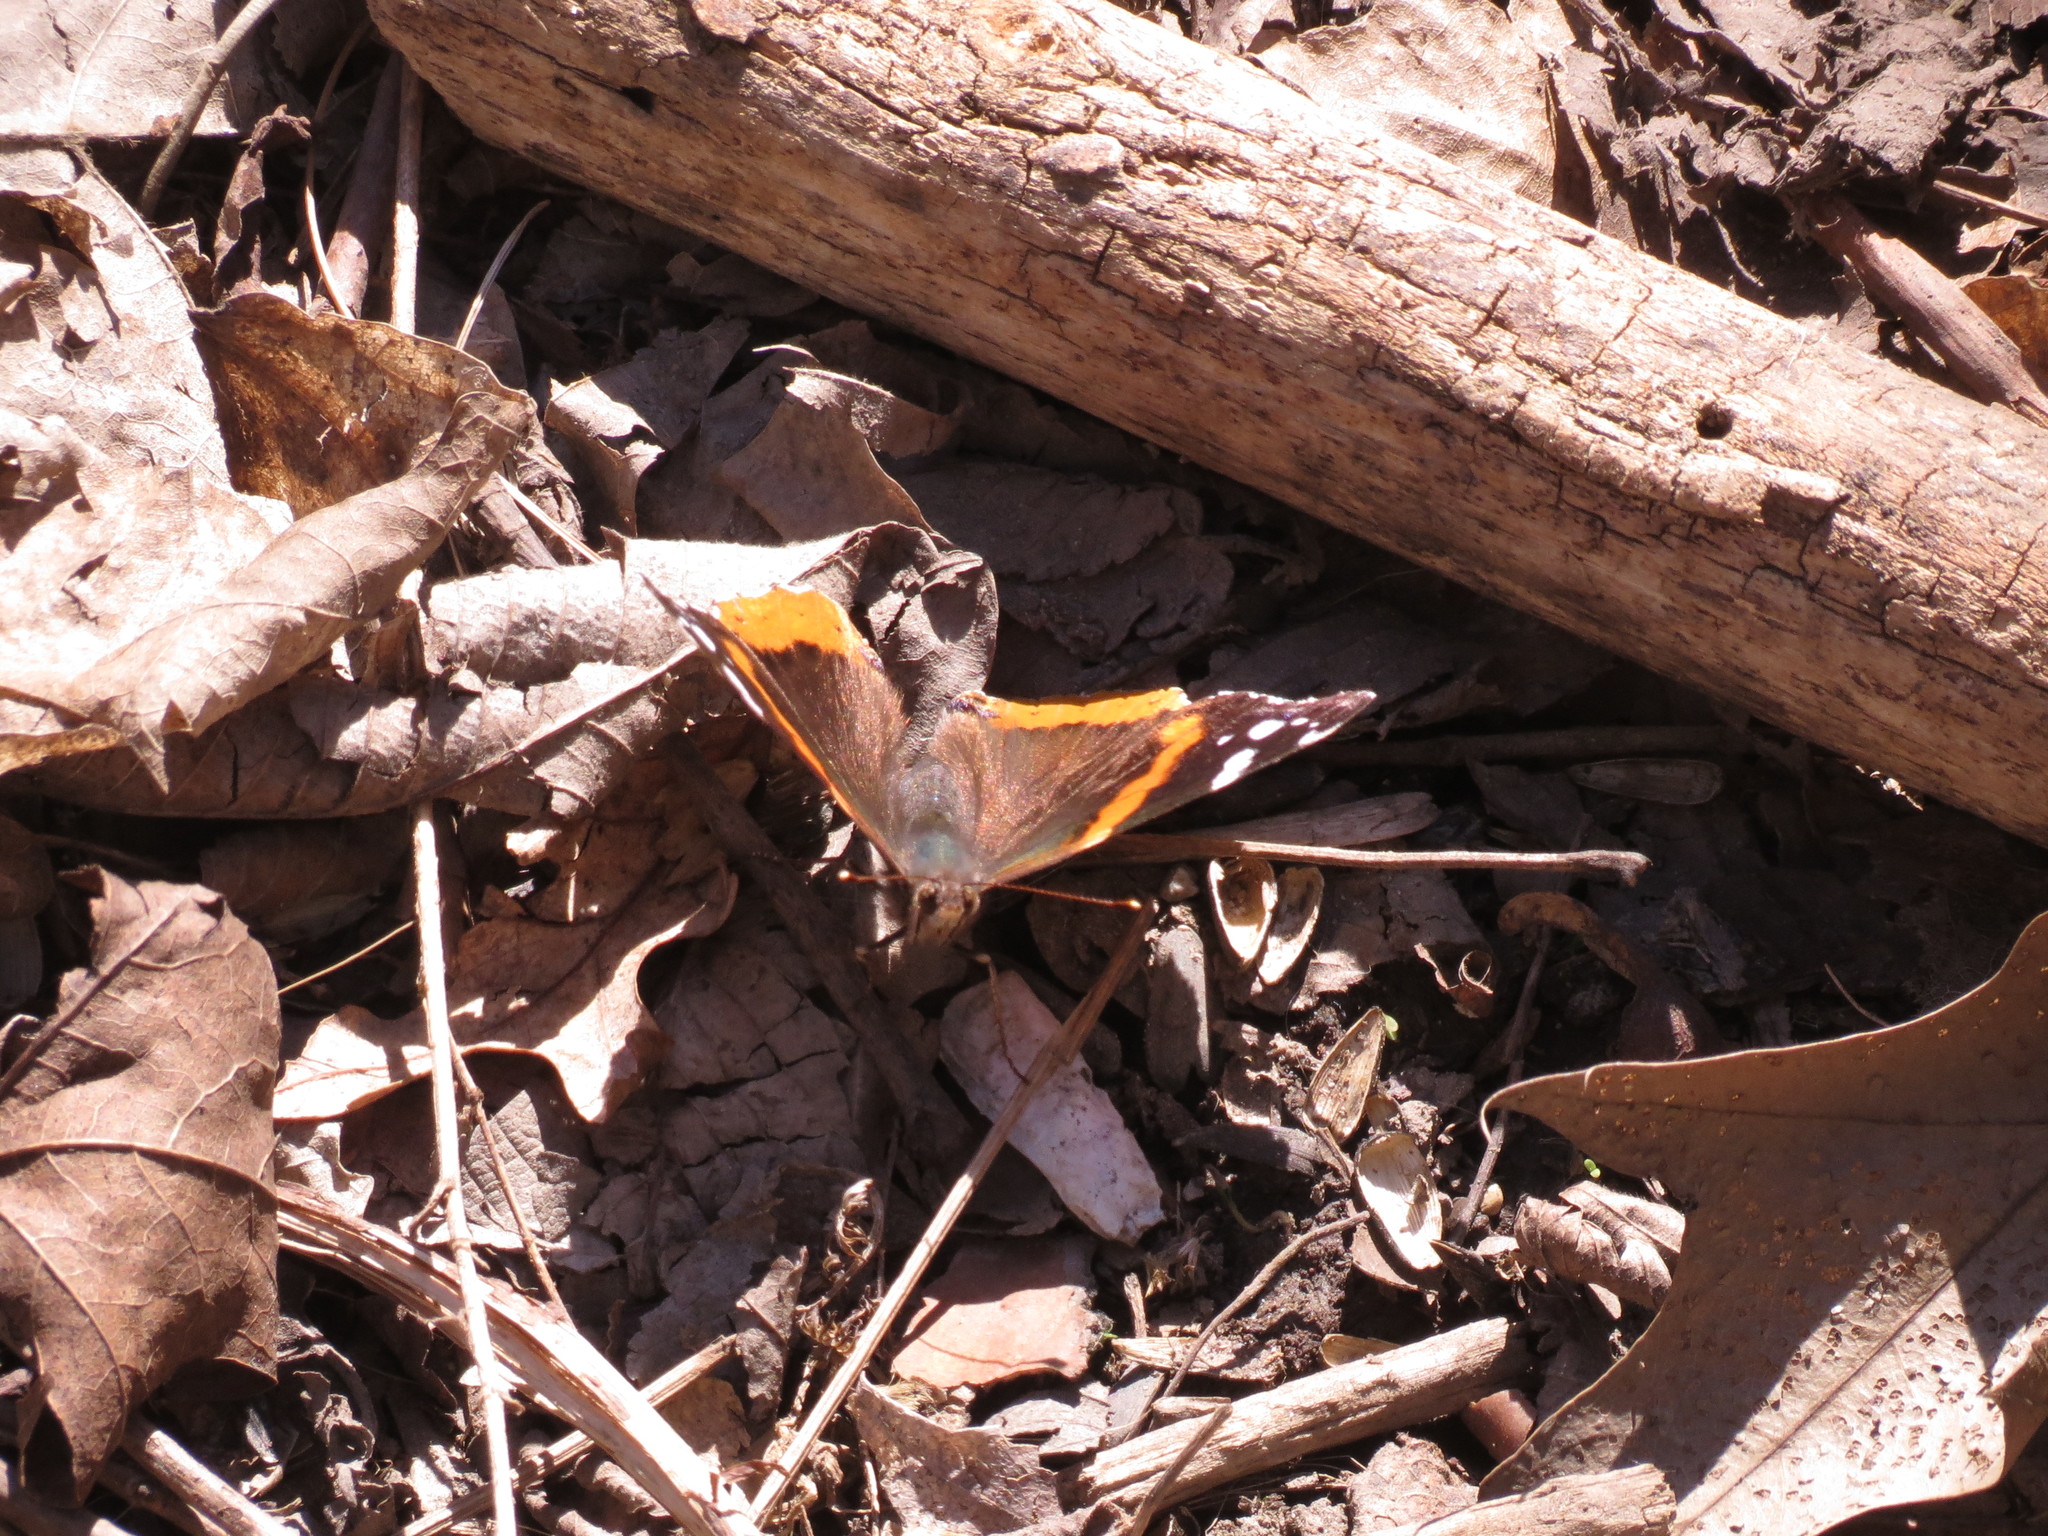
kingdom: Animalia
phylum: Arthropoda
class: Insecta
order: Lepidoptera
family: Nymphalidae
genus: Vanessa
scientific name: Vanessa atalanta
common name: Red admiral
